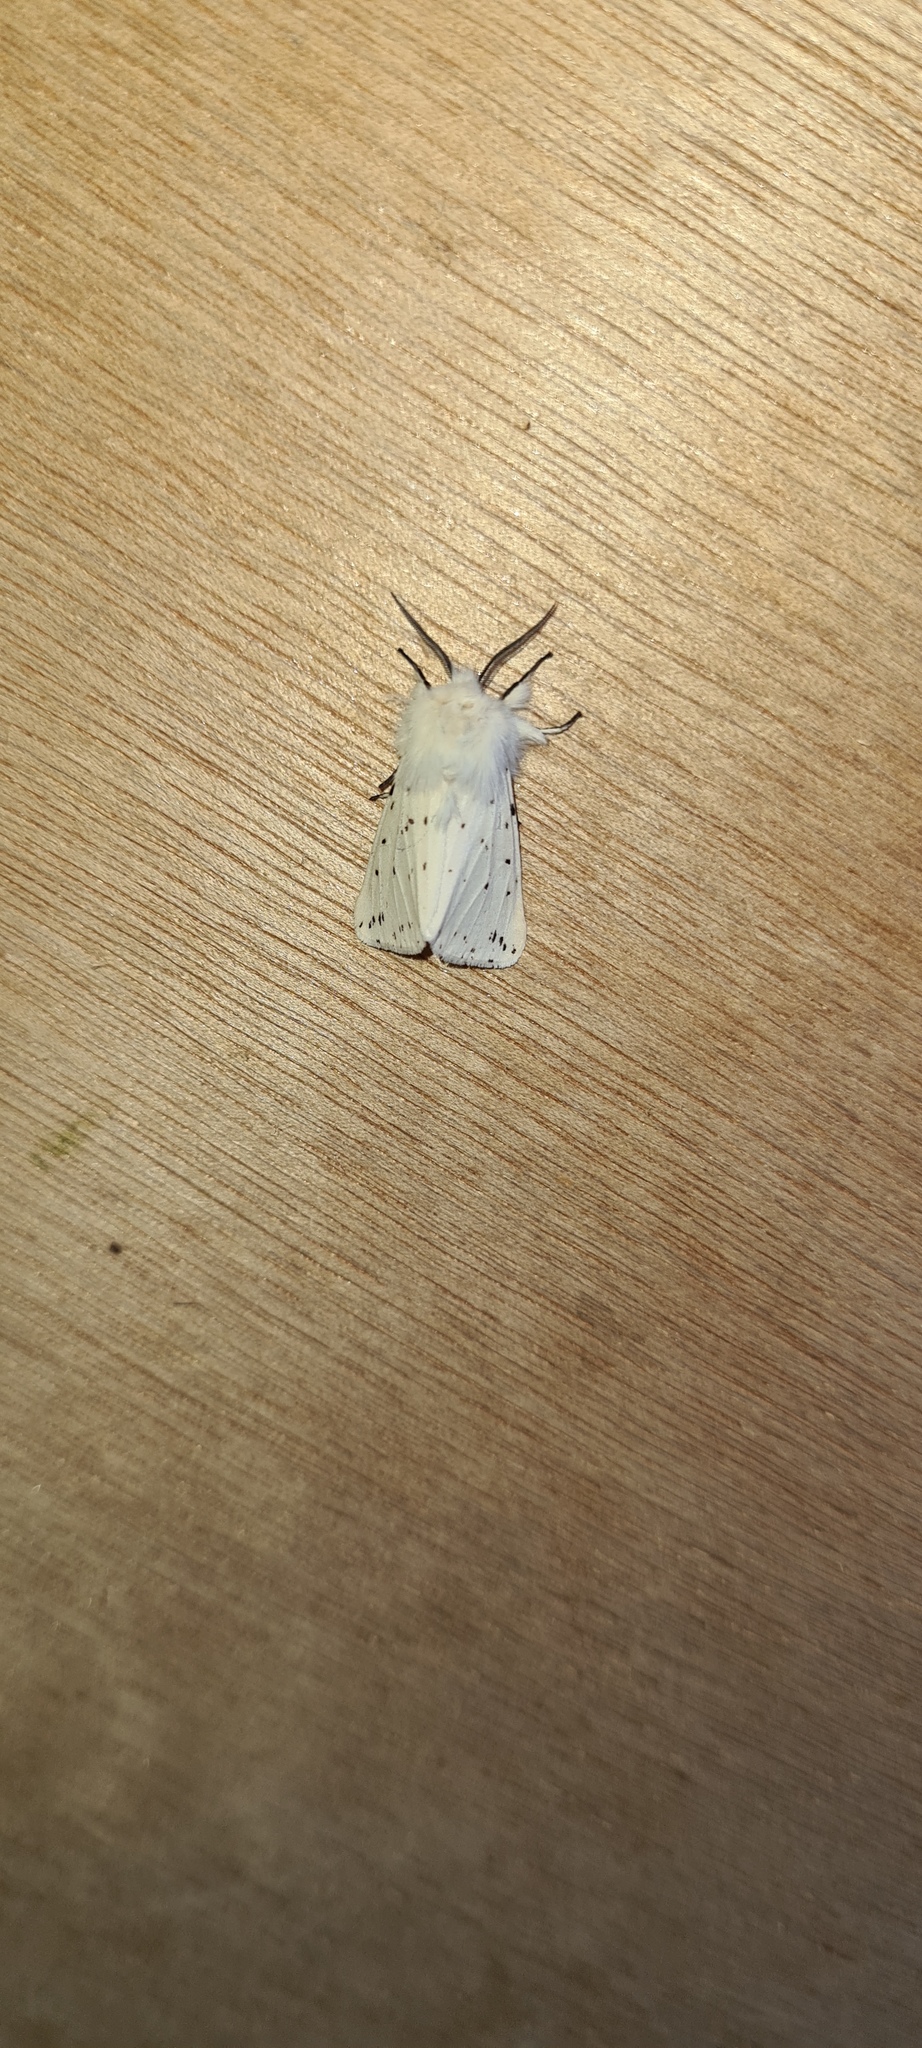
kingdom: Animalia
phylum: Arthropoda
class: Insecta
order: Lepidoptera
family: Erebidae
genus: Spilosoma
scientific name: Spilosoma lubricipeda
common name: White ermine
